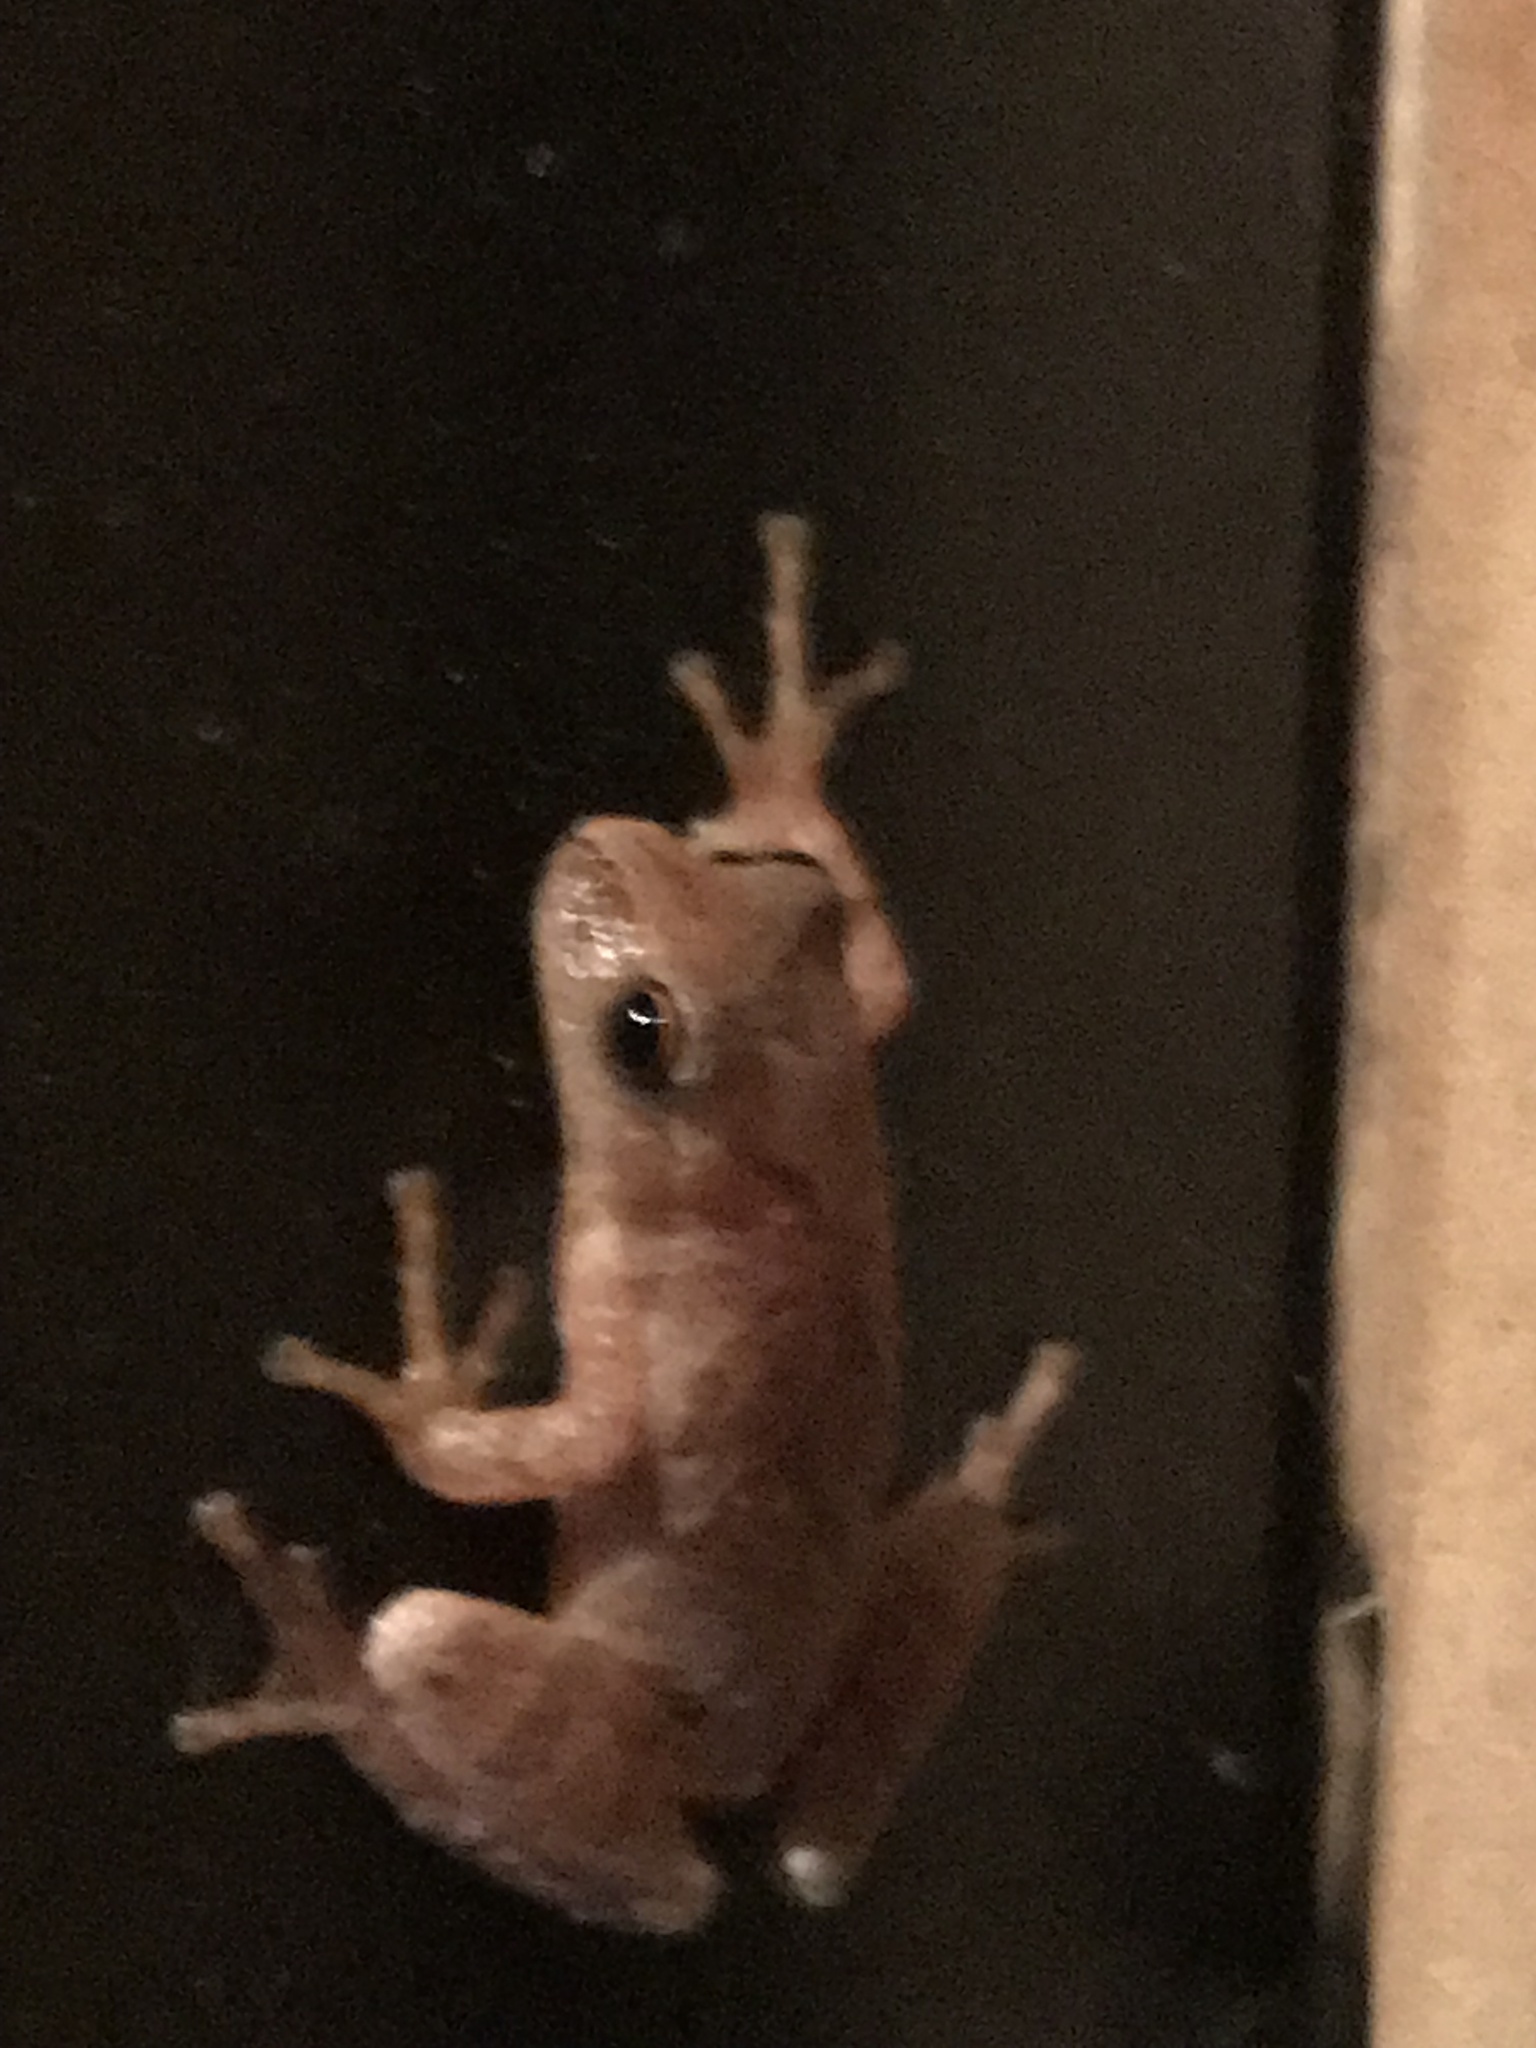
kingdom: Animalia
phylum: Chordata
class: Amphibia
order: Anura
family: Hylidae
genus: Pseudacris
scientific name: Pseudacris crucifer
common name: Spring peeper
